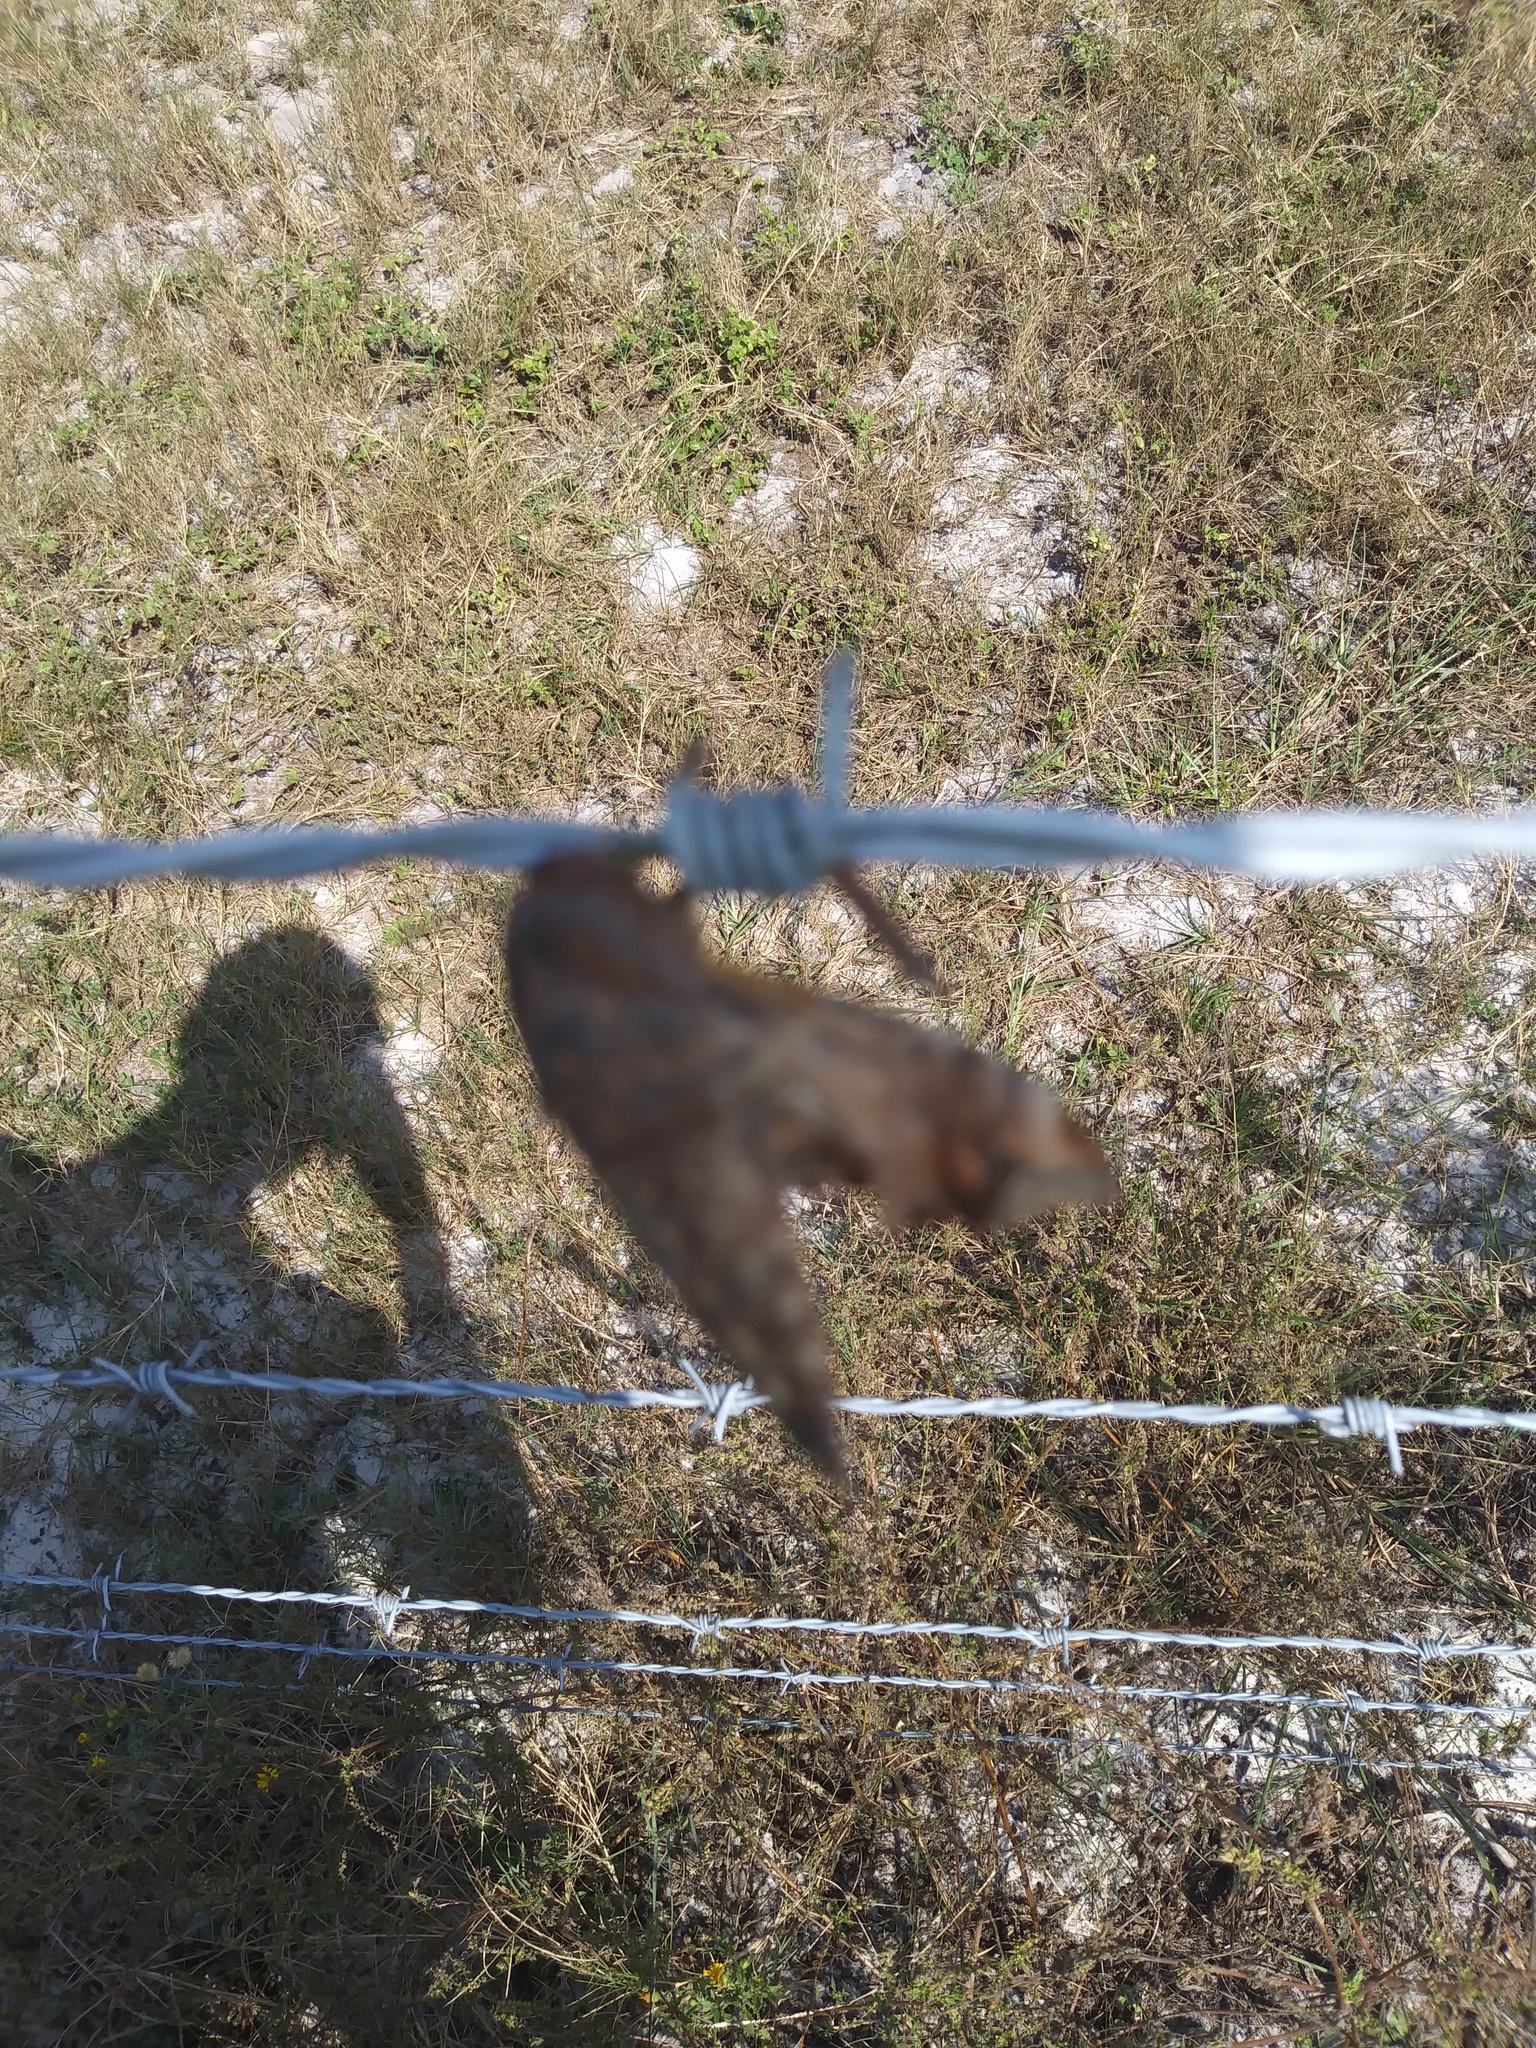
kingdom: Animalia
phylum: Arthropoda
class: Insecta
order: Lepidoptera
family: Sphingidae
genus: Enyo
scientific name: Enyo lugubris
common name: Mournful sphinx
